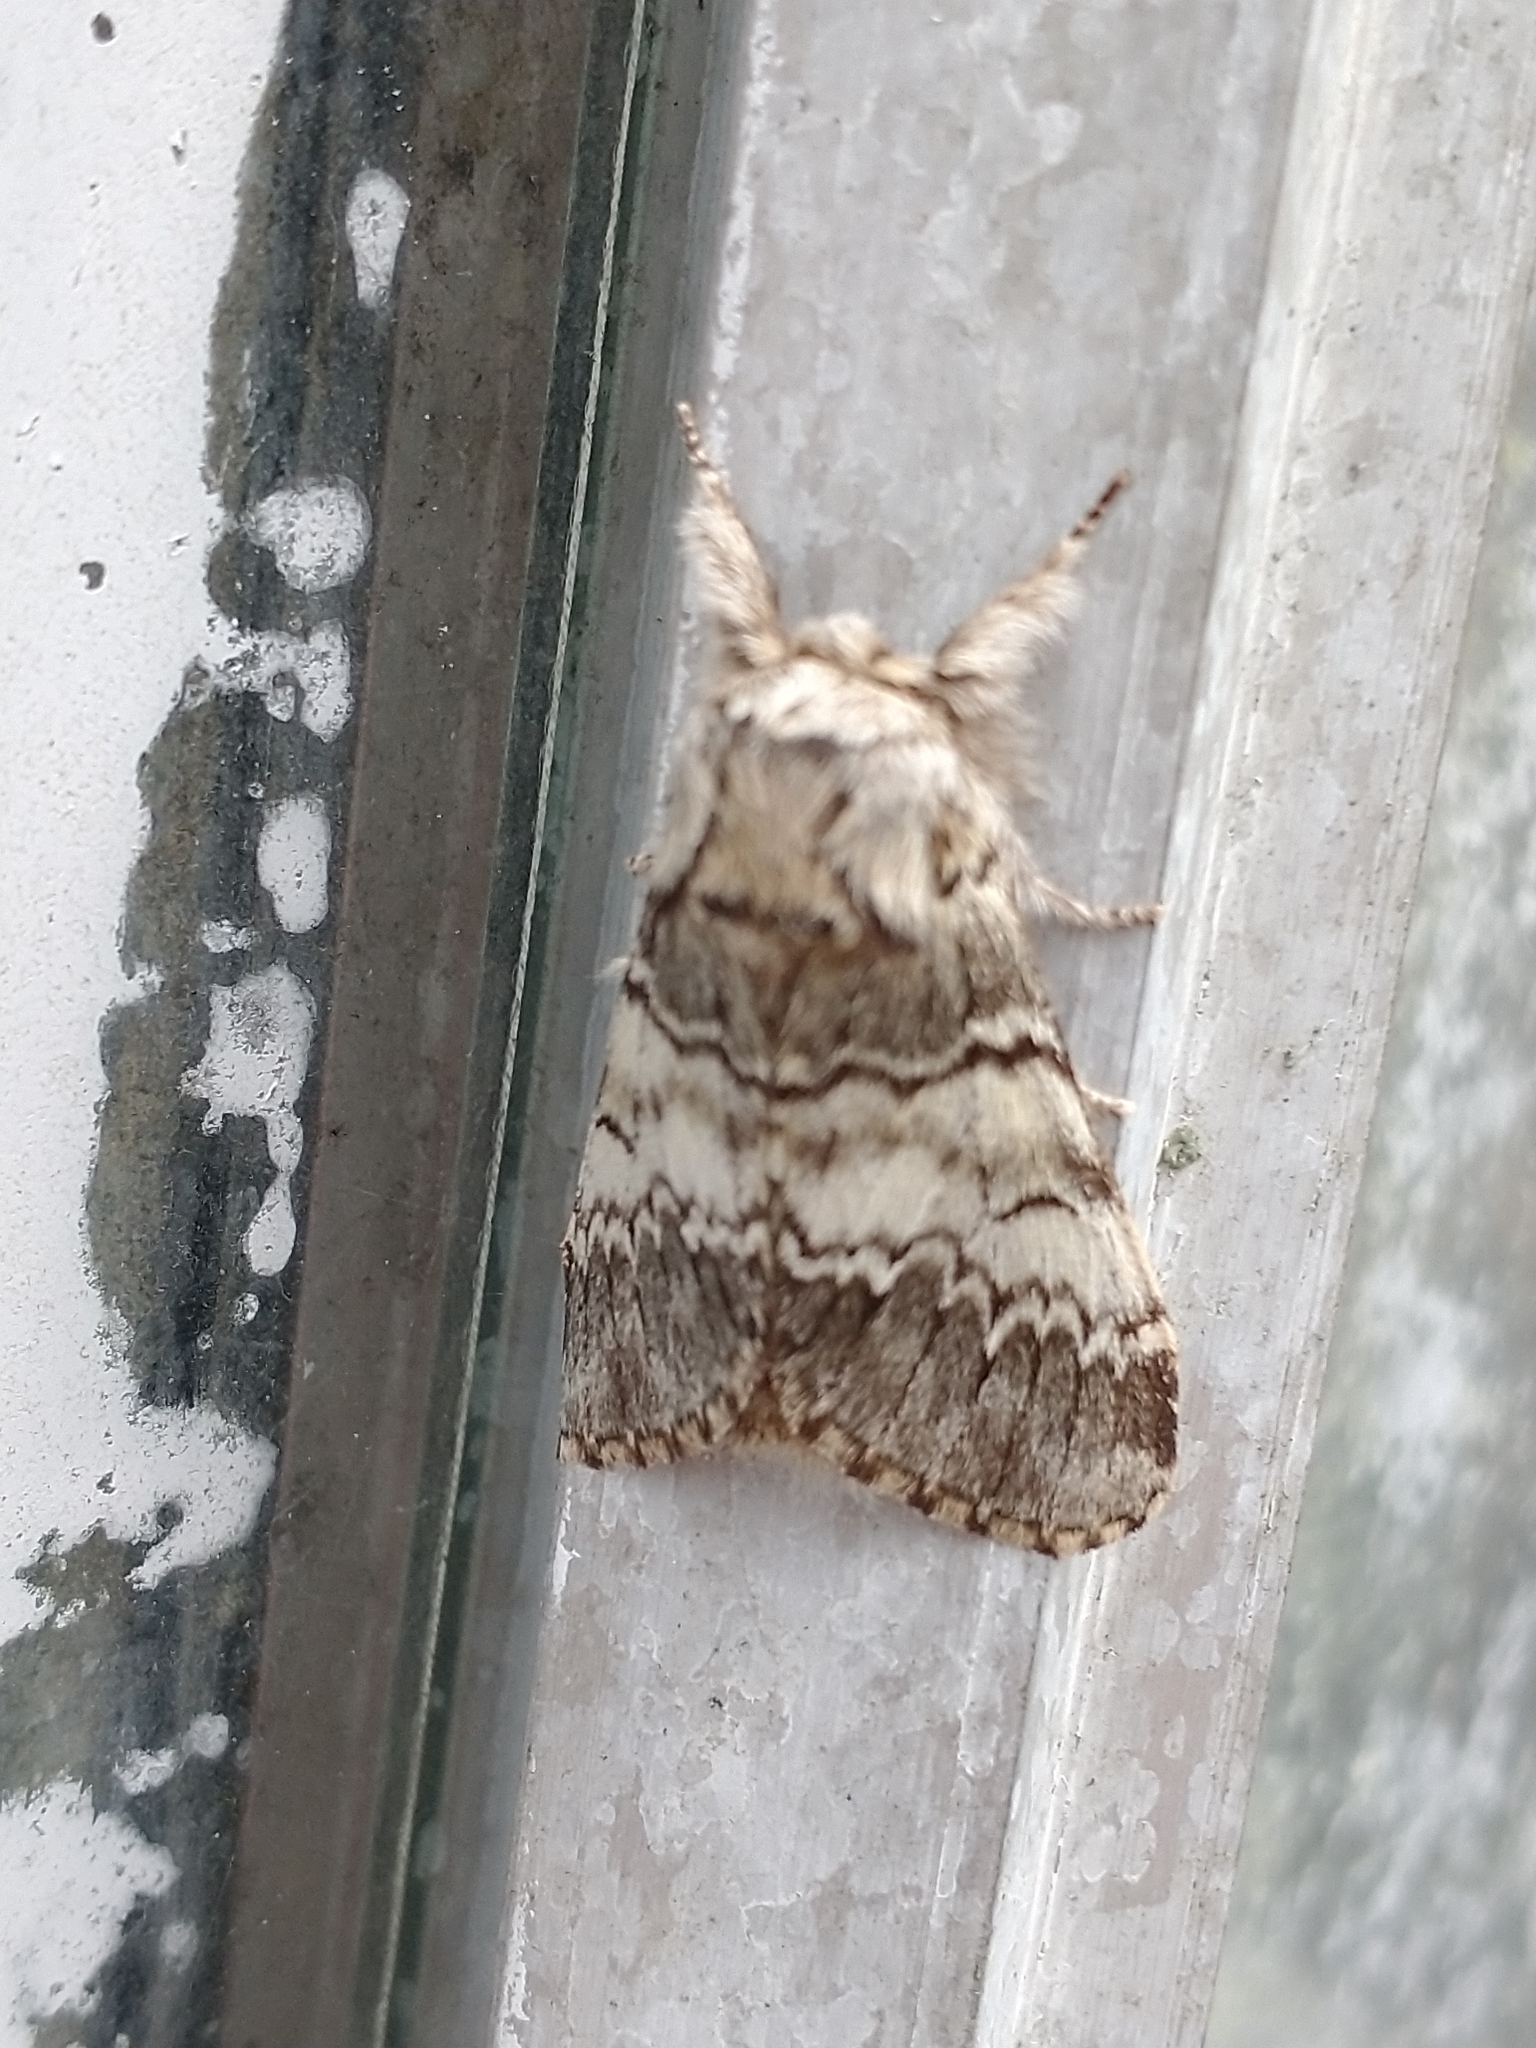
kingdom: Animalia
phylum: Arthropoda
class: Insecta
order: Lepidoptera
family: Notodontidae
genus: Drymonia
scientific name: Drymonia ruficornis
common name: Lunar marbled brown
